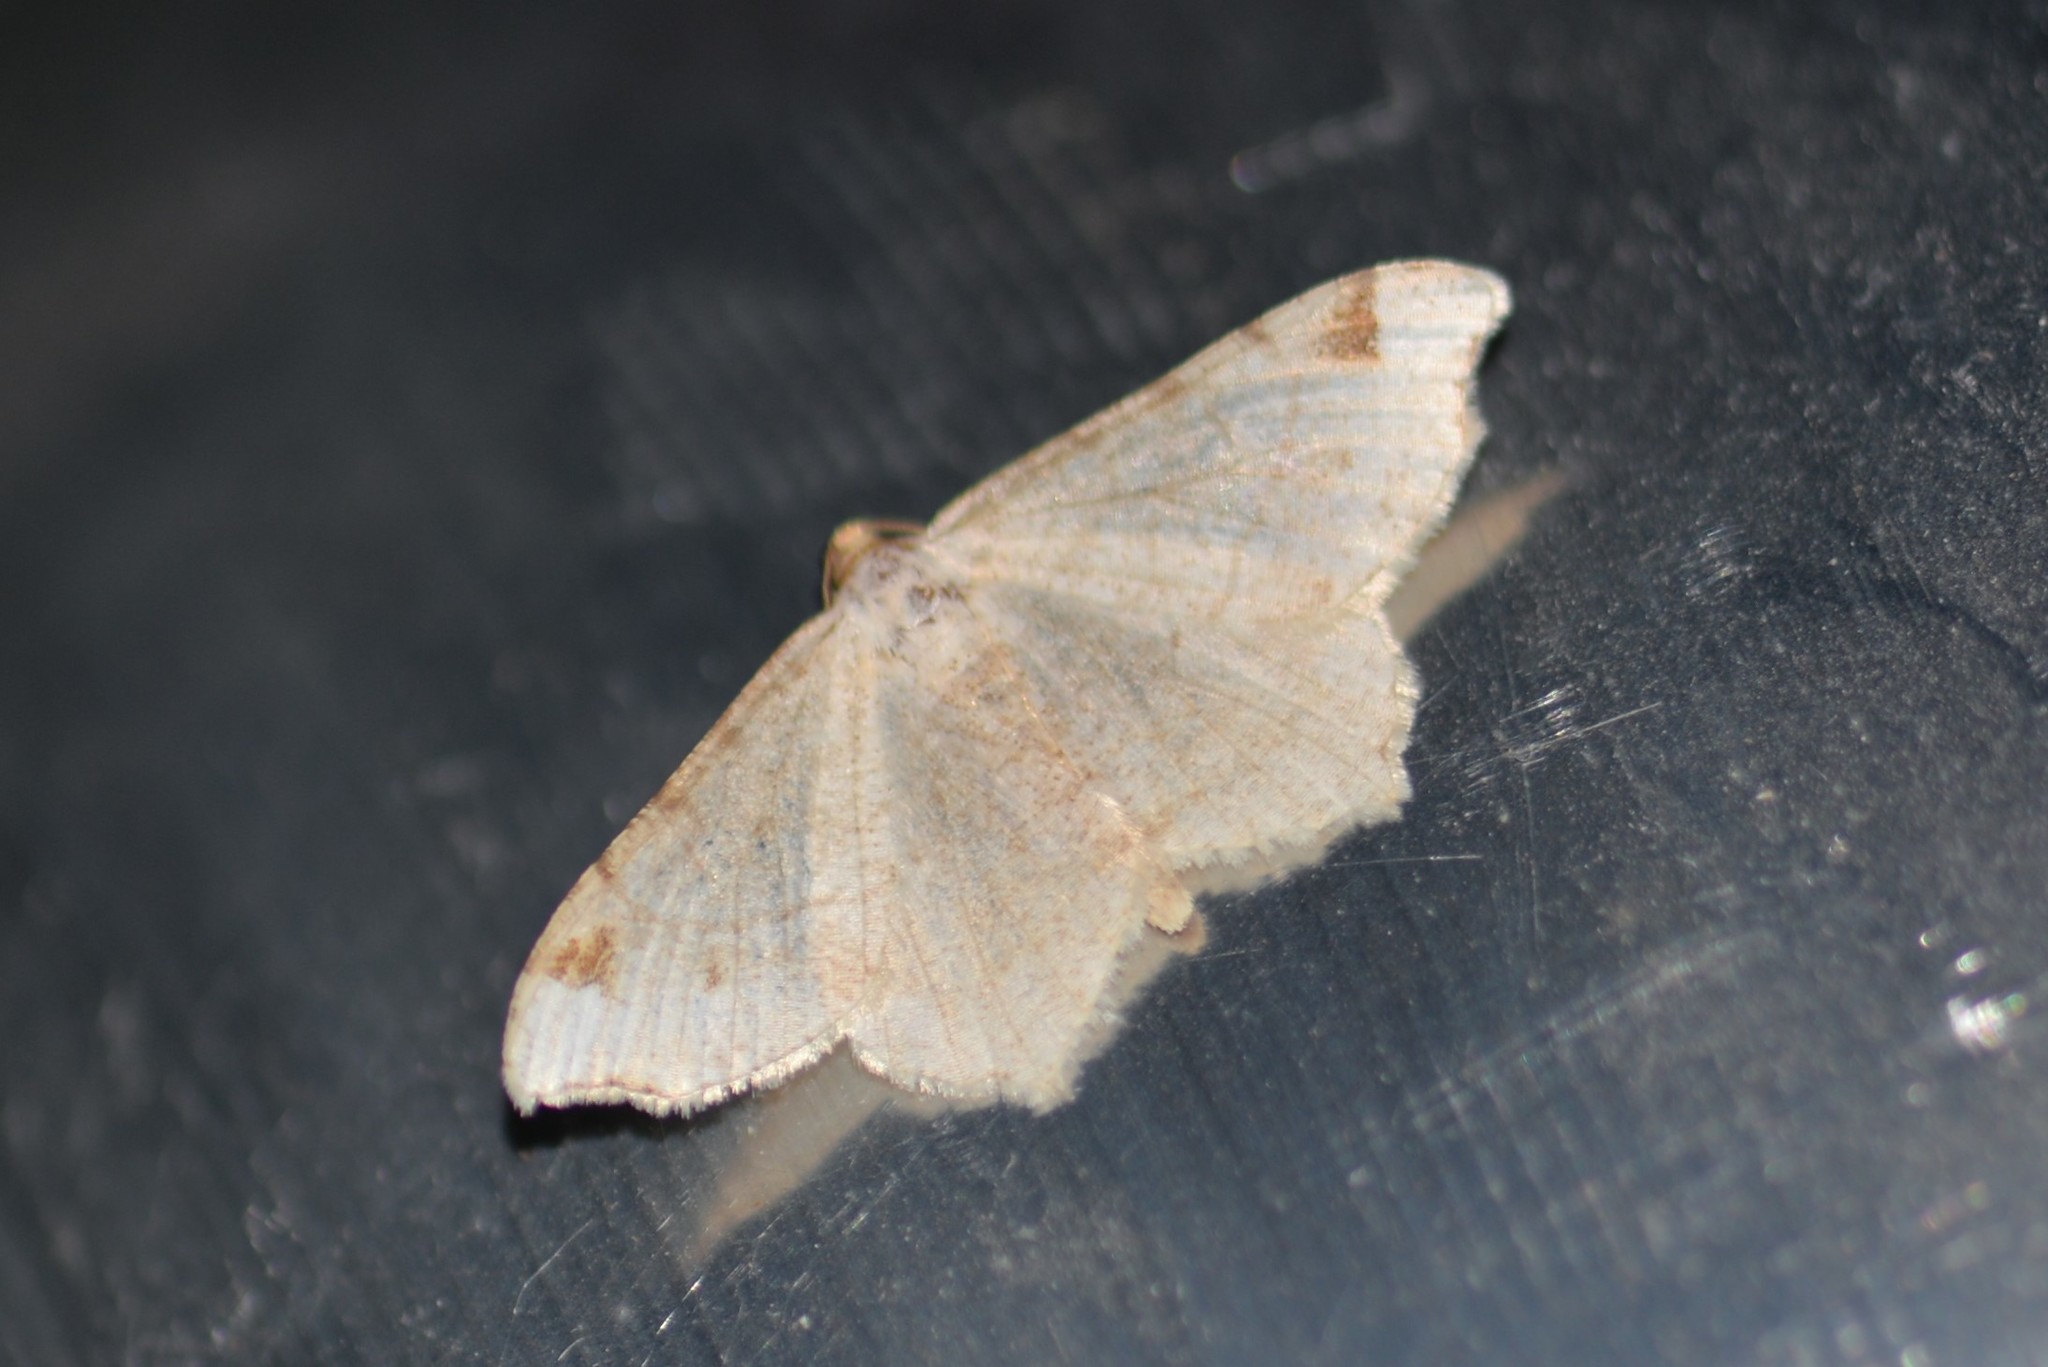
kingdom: Animalia
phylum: Arthropoda
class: Insecta
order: Lepidoptera
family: Geometridae
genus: Macaria
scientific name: Macaria bisignata
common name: Red-headed inchworm
